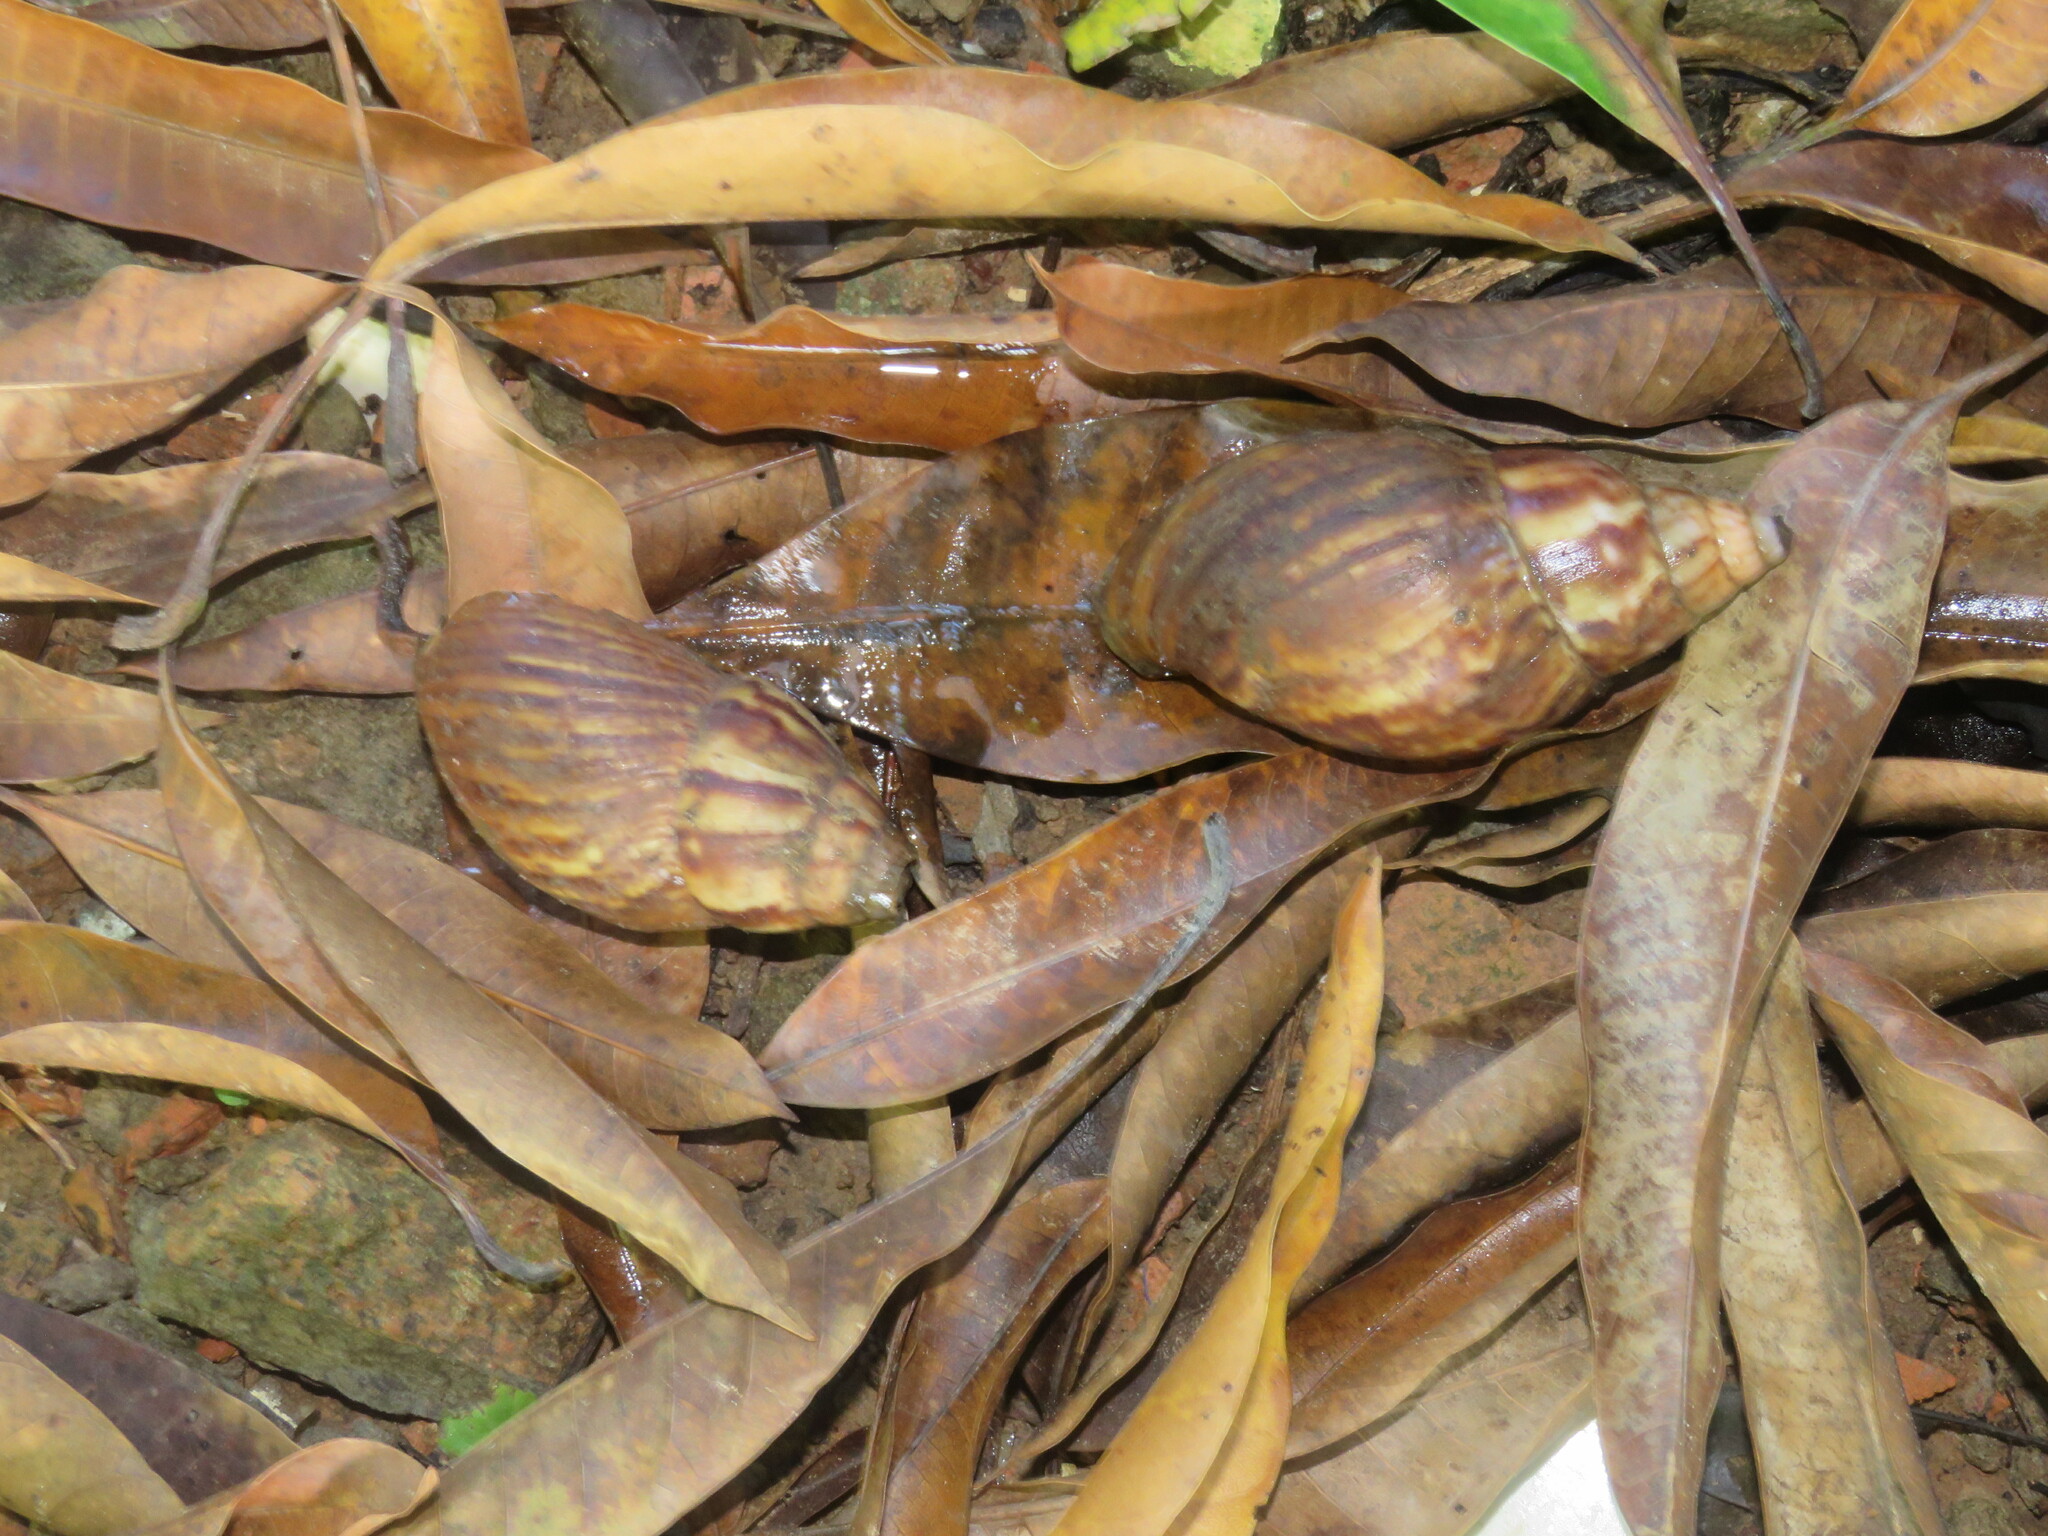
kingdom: Animalia
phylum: Mollusca
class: Gastropoda
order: Stylommatophora
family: Achatinidae
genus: Lissachatina
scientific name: Lissachatina fulica
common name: Giant african snail
